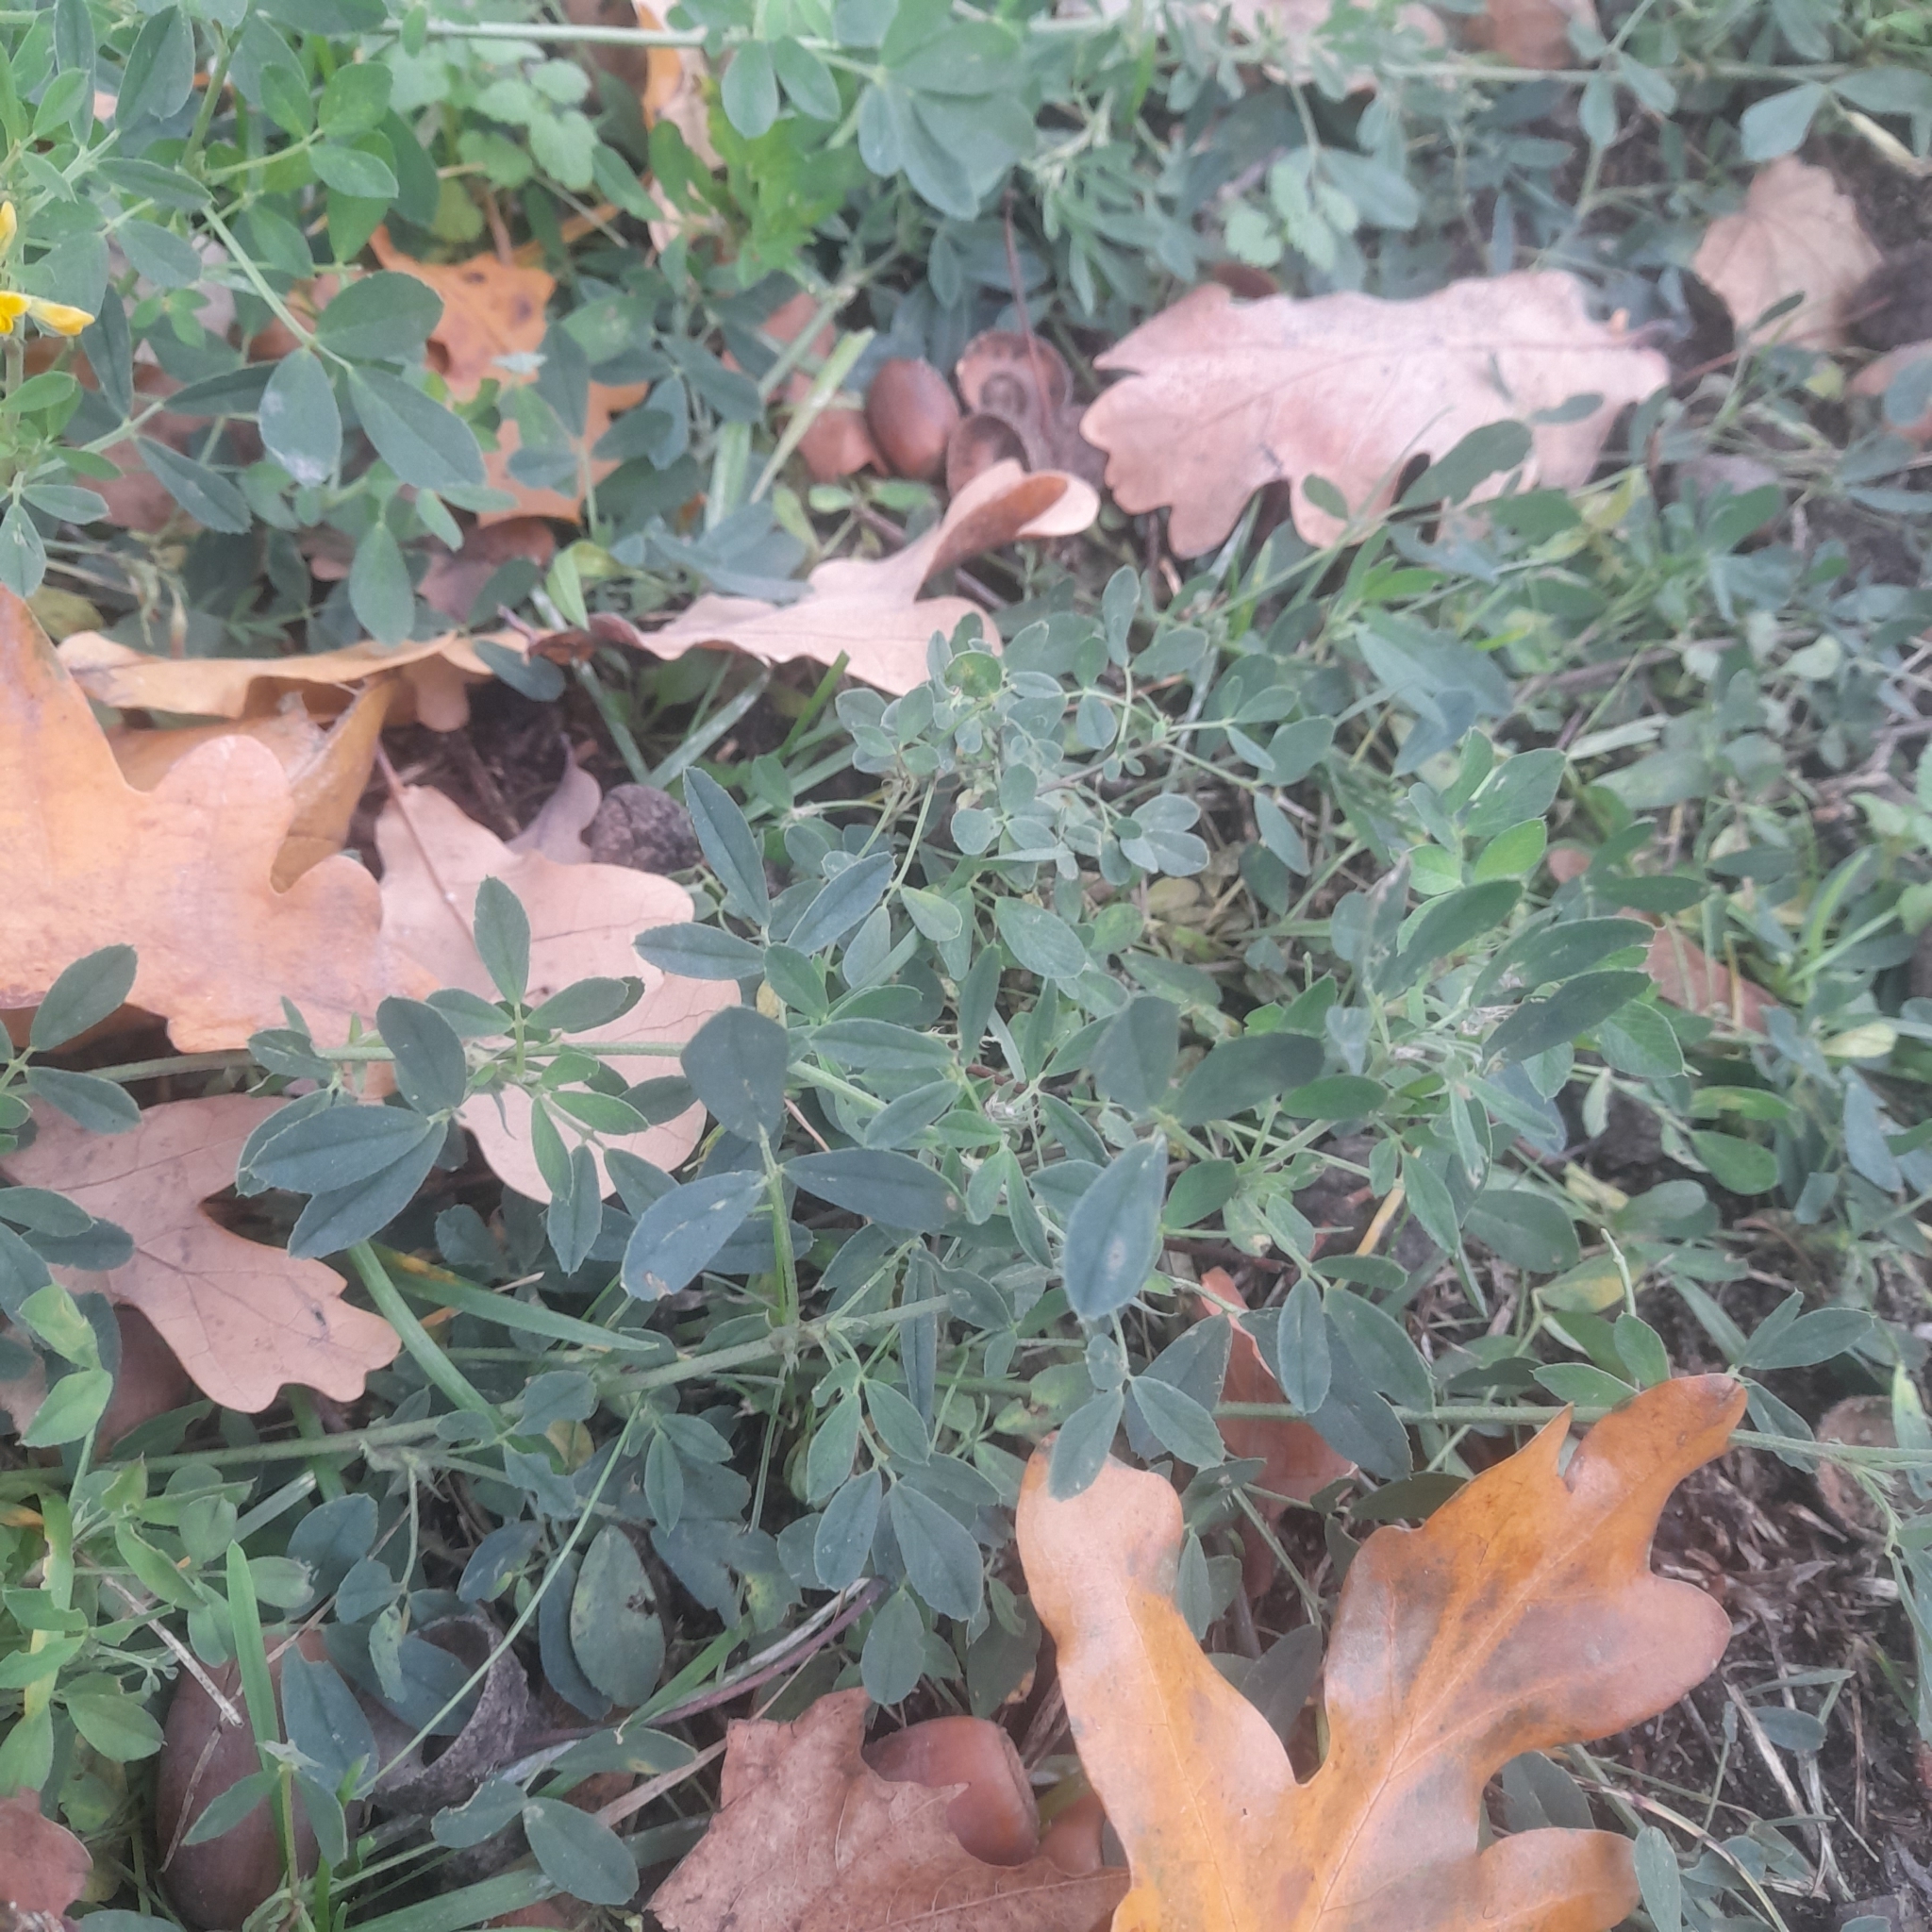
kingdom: Plantae
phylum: Tracheophyta
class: Magnoliopsida
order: Fabales
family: Fabaceae
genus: Medicago
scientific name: Medicago falcata
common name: Sickle medick
